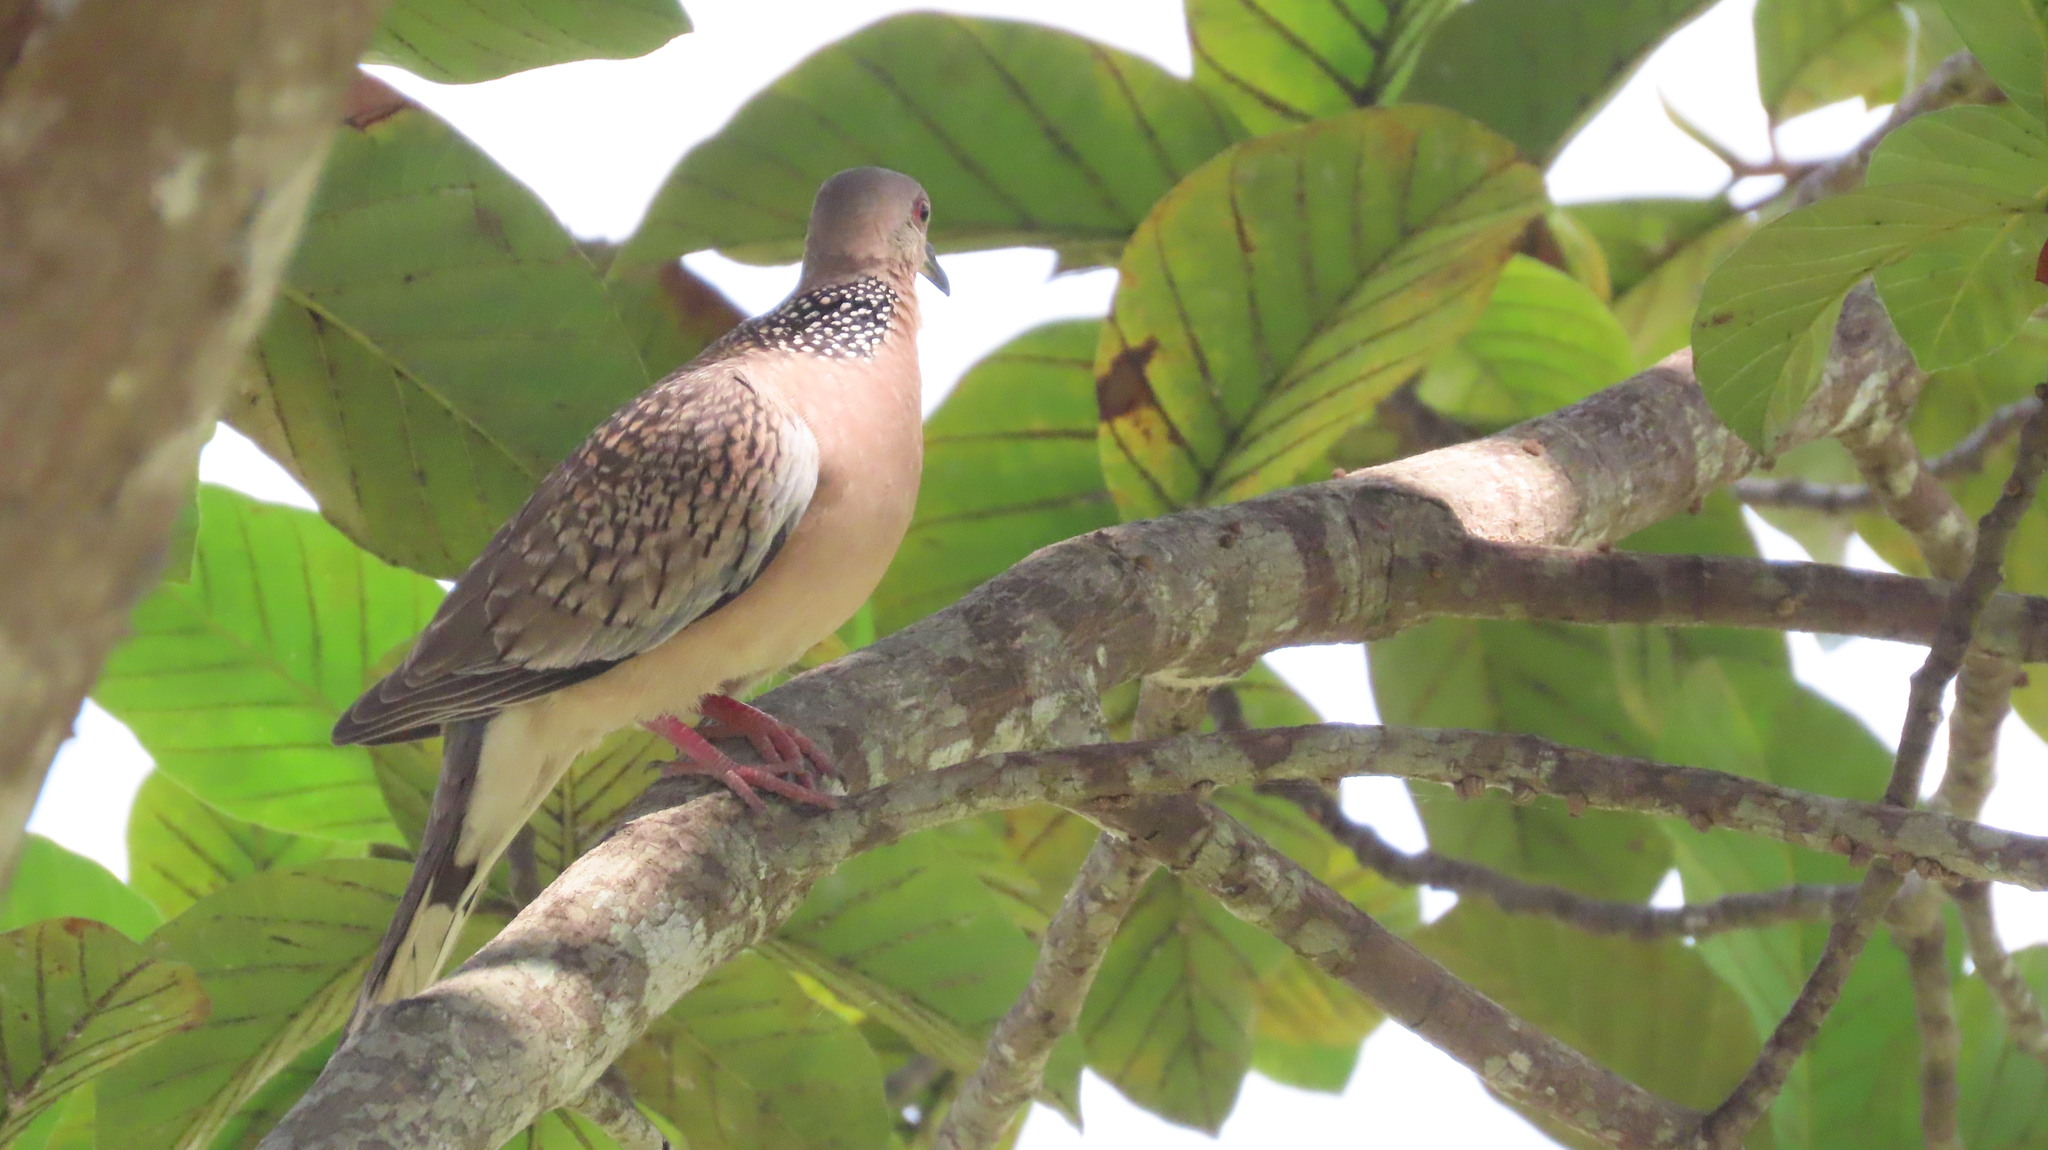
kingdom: Animalia
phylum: Chordata
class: Aves
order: Columbiformes
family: Columbidae
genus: Spilopelia
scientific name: Spilopelia chinensis
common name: Spotted dove
